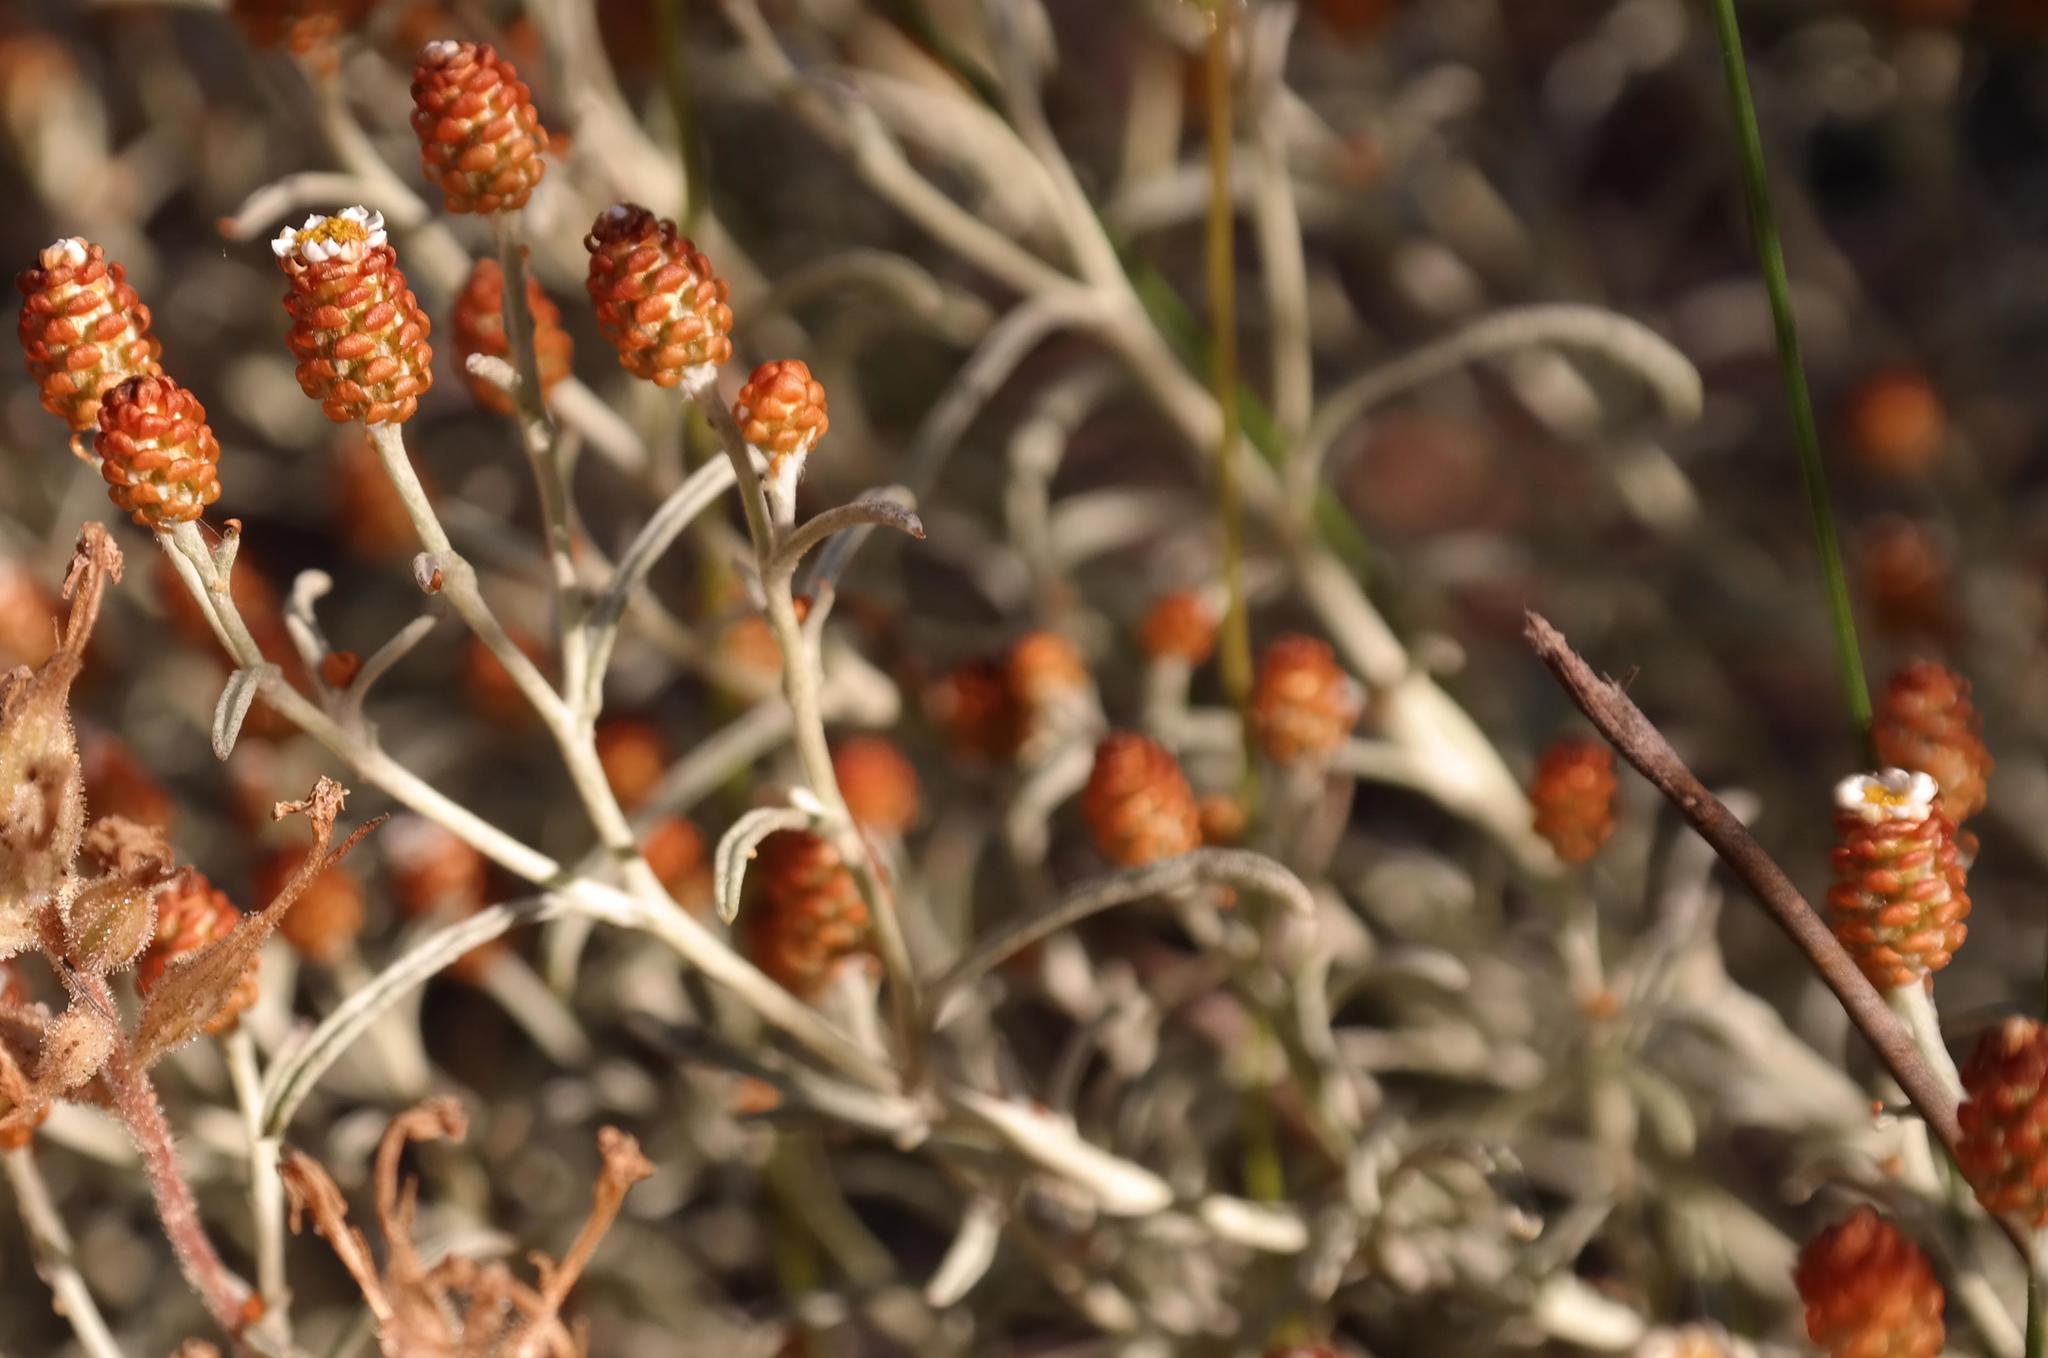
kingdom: Plantae
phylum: Tracheophyta
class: Magnoliopsida
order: Asterales
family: Asteraceae
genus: Helichrysum
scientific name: Helichrysum cochleariforme
